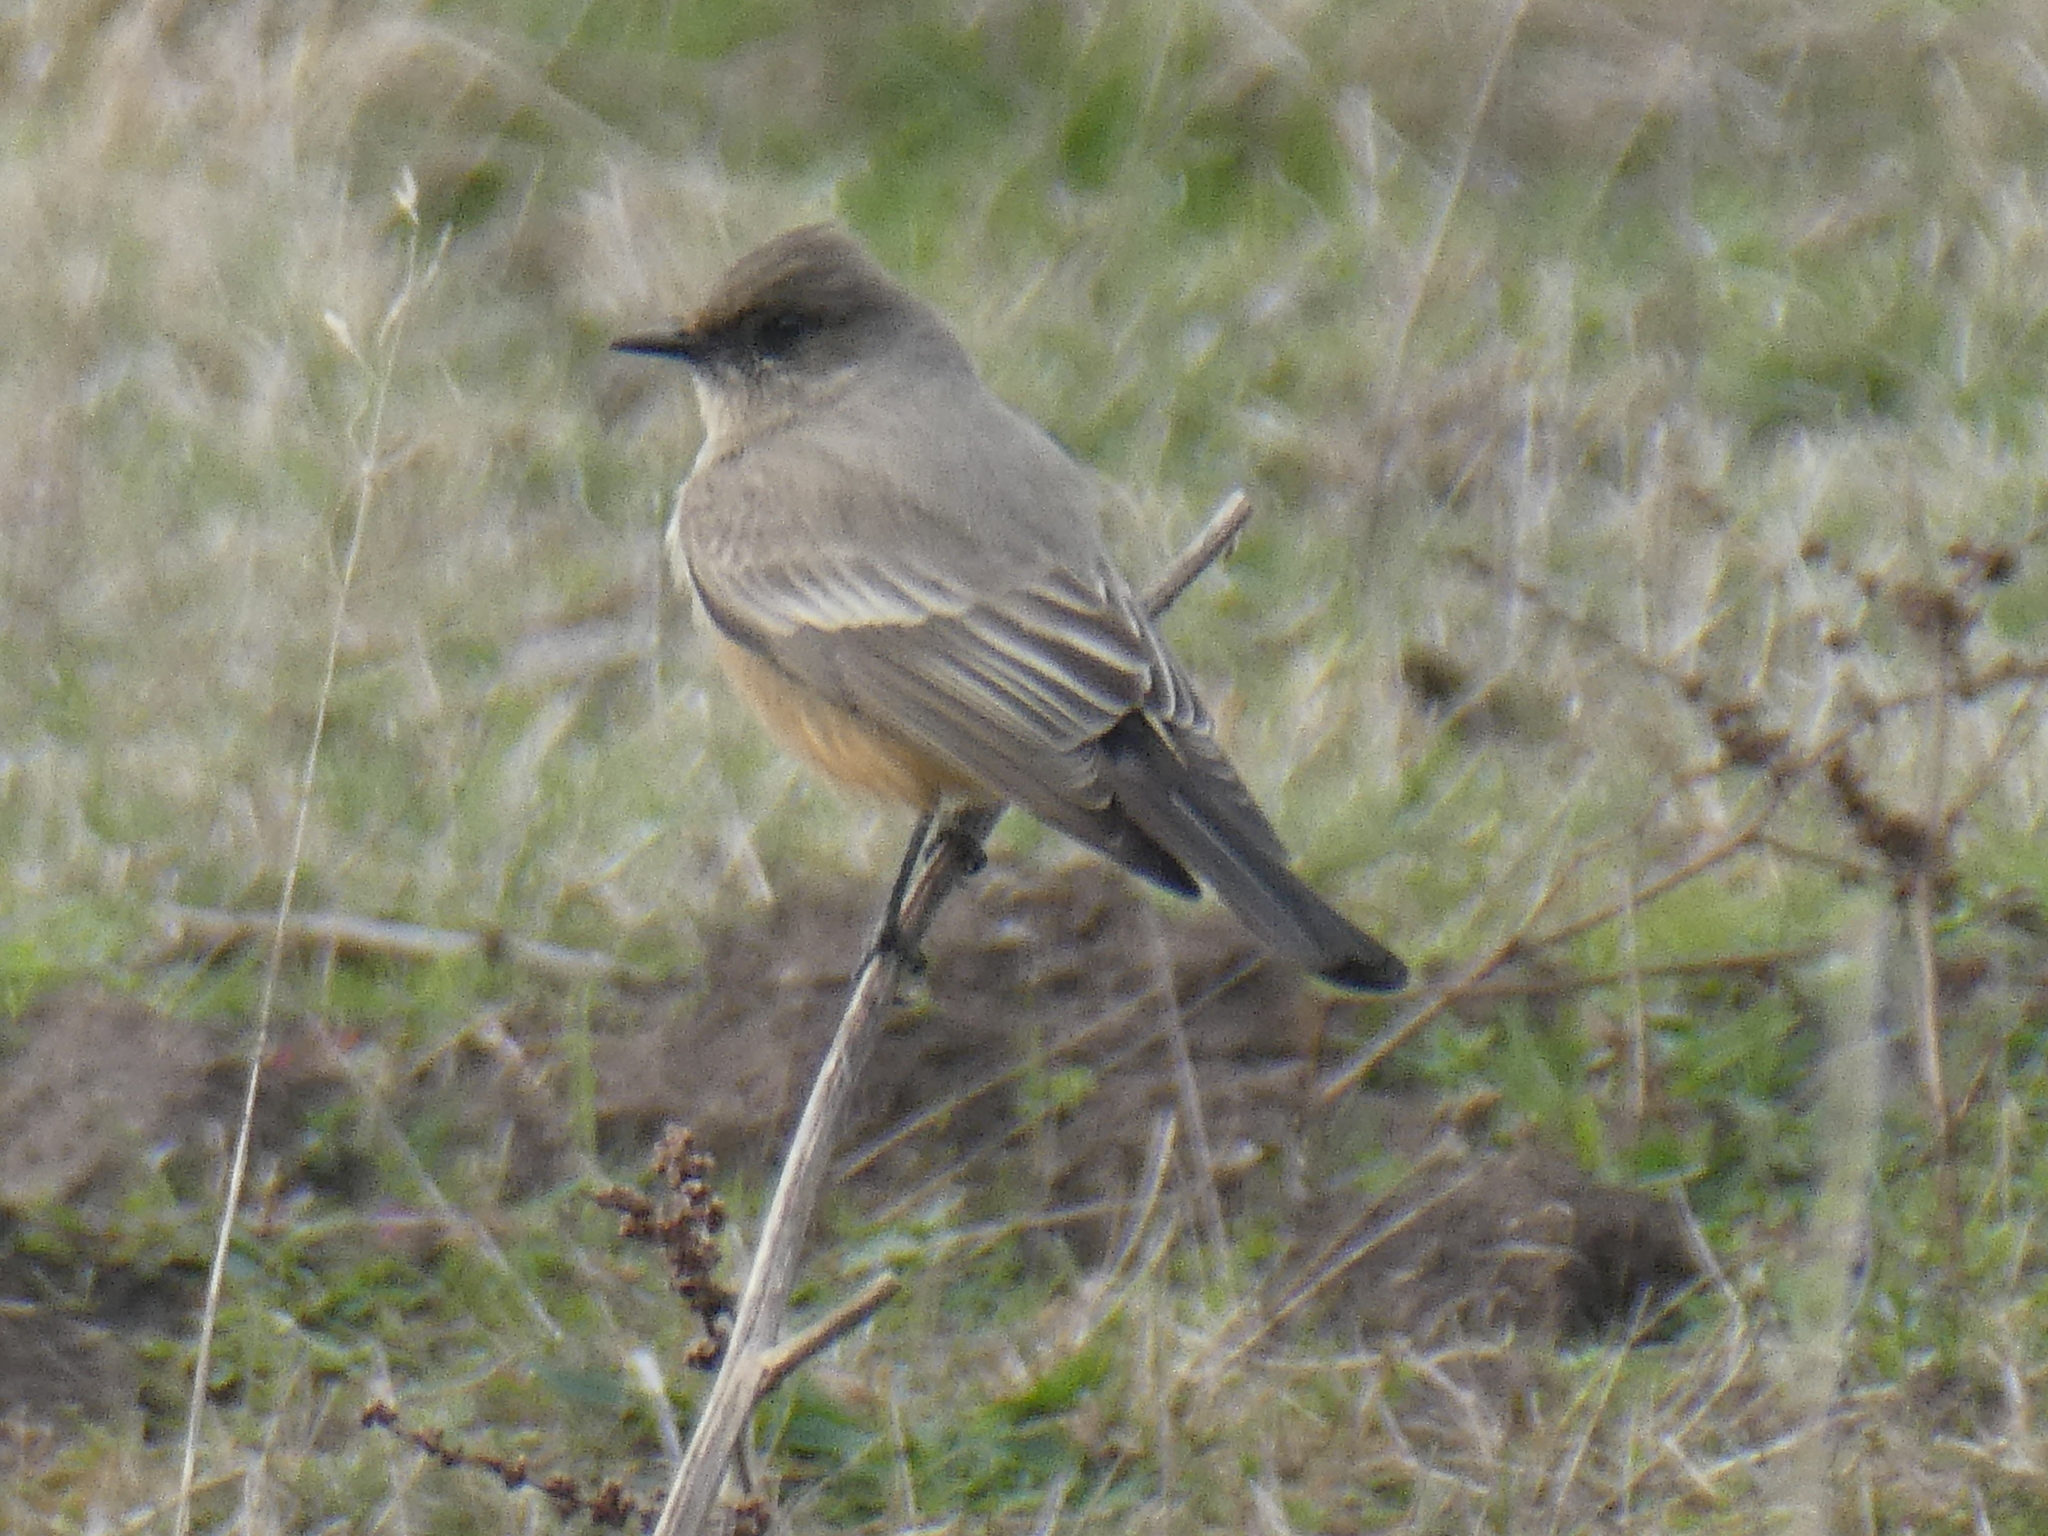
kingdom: Animalia
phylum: Chordata
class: Aves
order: Passeriformes
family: Tyrannidae
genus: Sayornis
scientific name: Sayornis saya
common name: Say's phoebe
